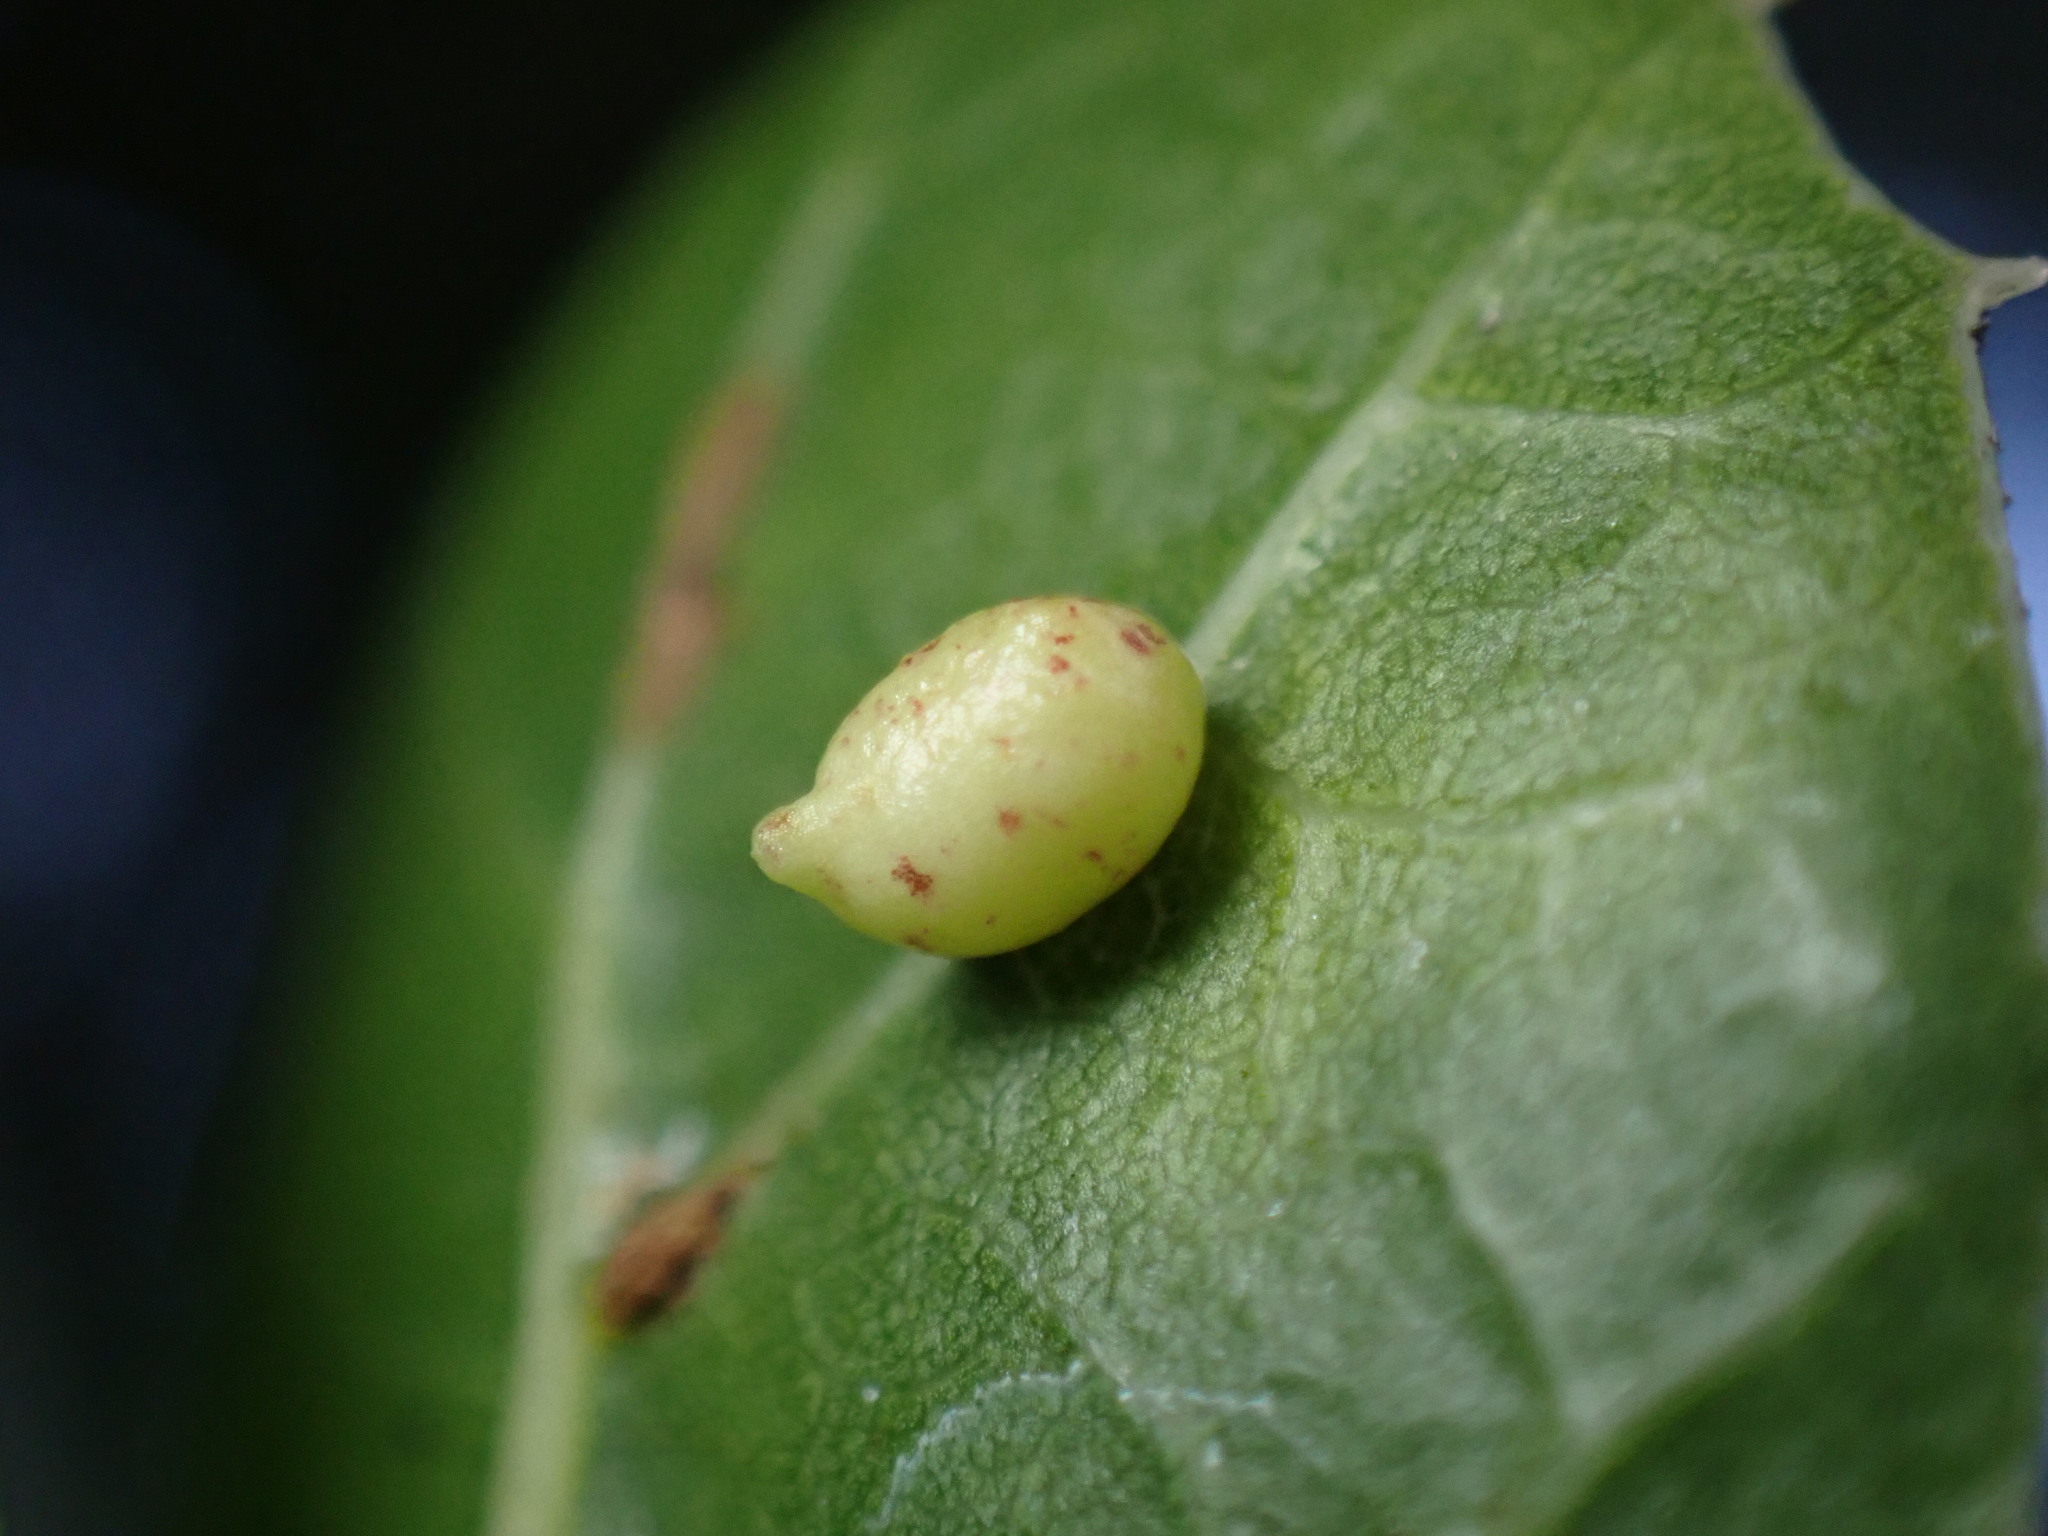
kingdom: Animalia
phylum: Arthropoda
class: Insecta
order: Hymenoptera
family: Cynipidae
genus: Dryocosmus
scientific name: Dryocosmus
